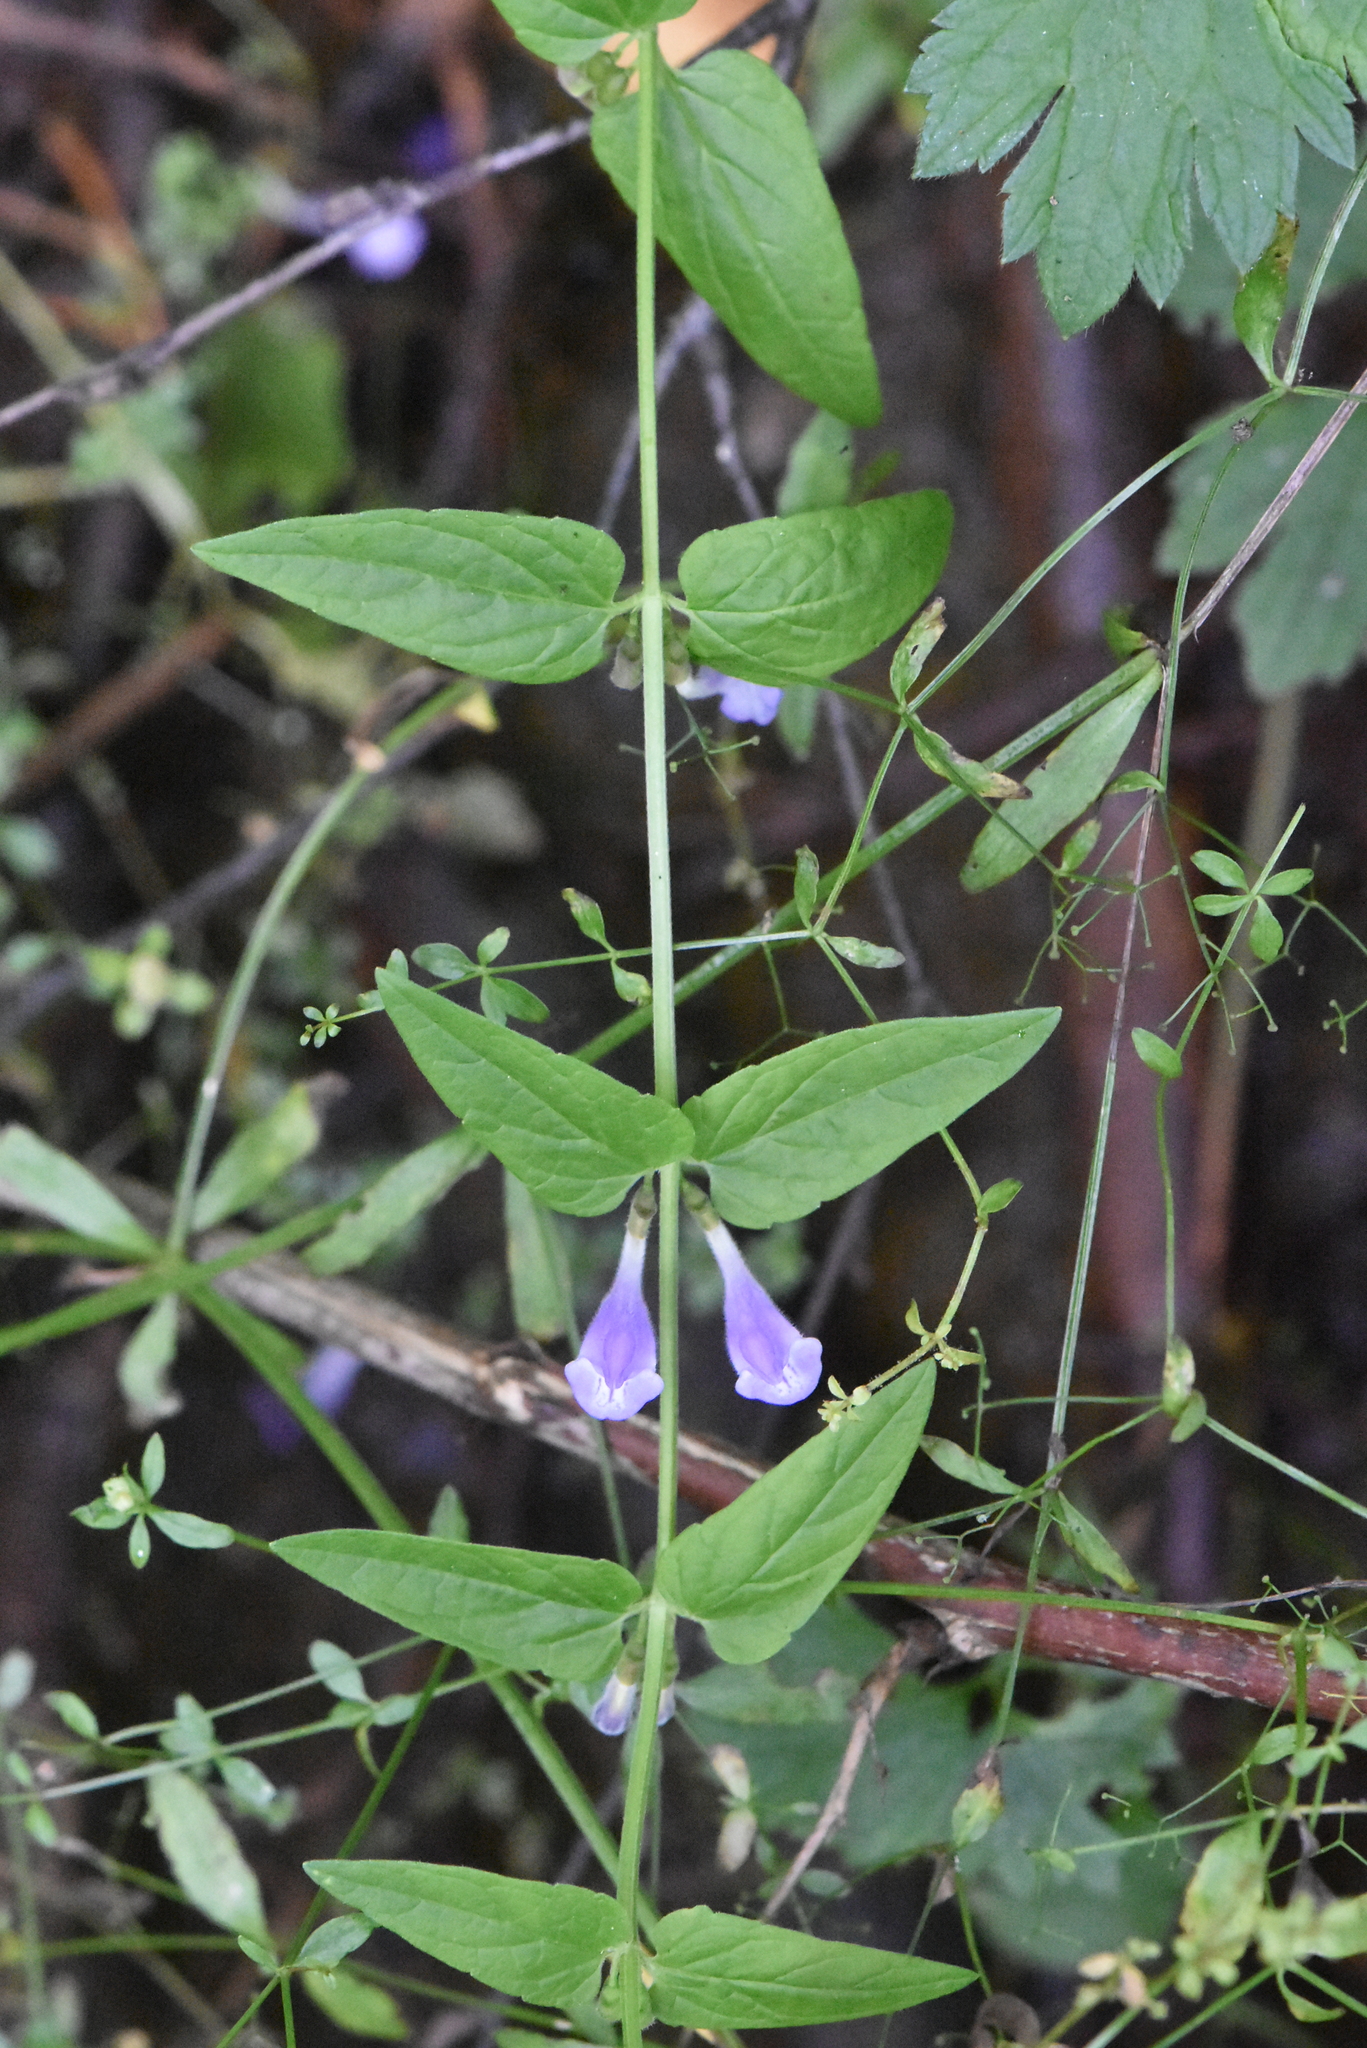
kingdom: Plantae
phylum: Tracheophyta
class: Magnoliopsida
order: Lamiales
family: Lamiaceae
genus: Scutellaria
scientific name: Scutellaria galericulata
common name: Skullcap
